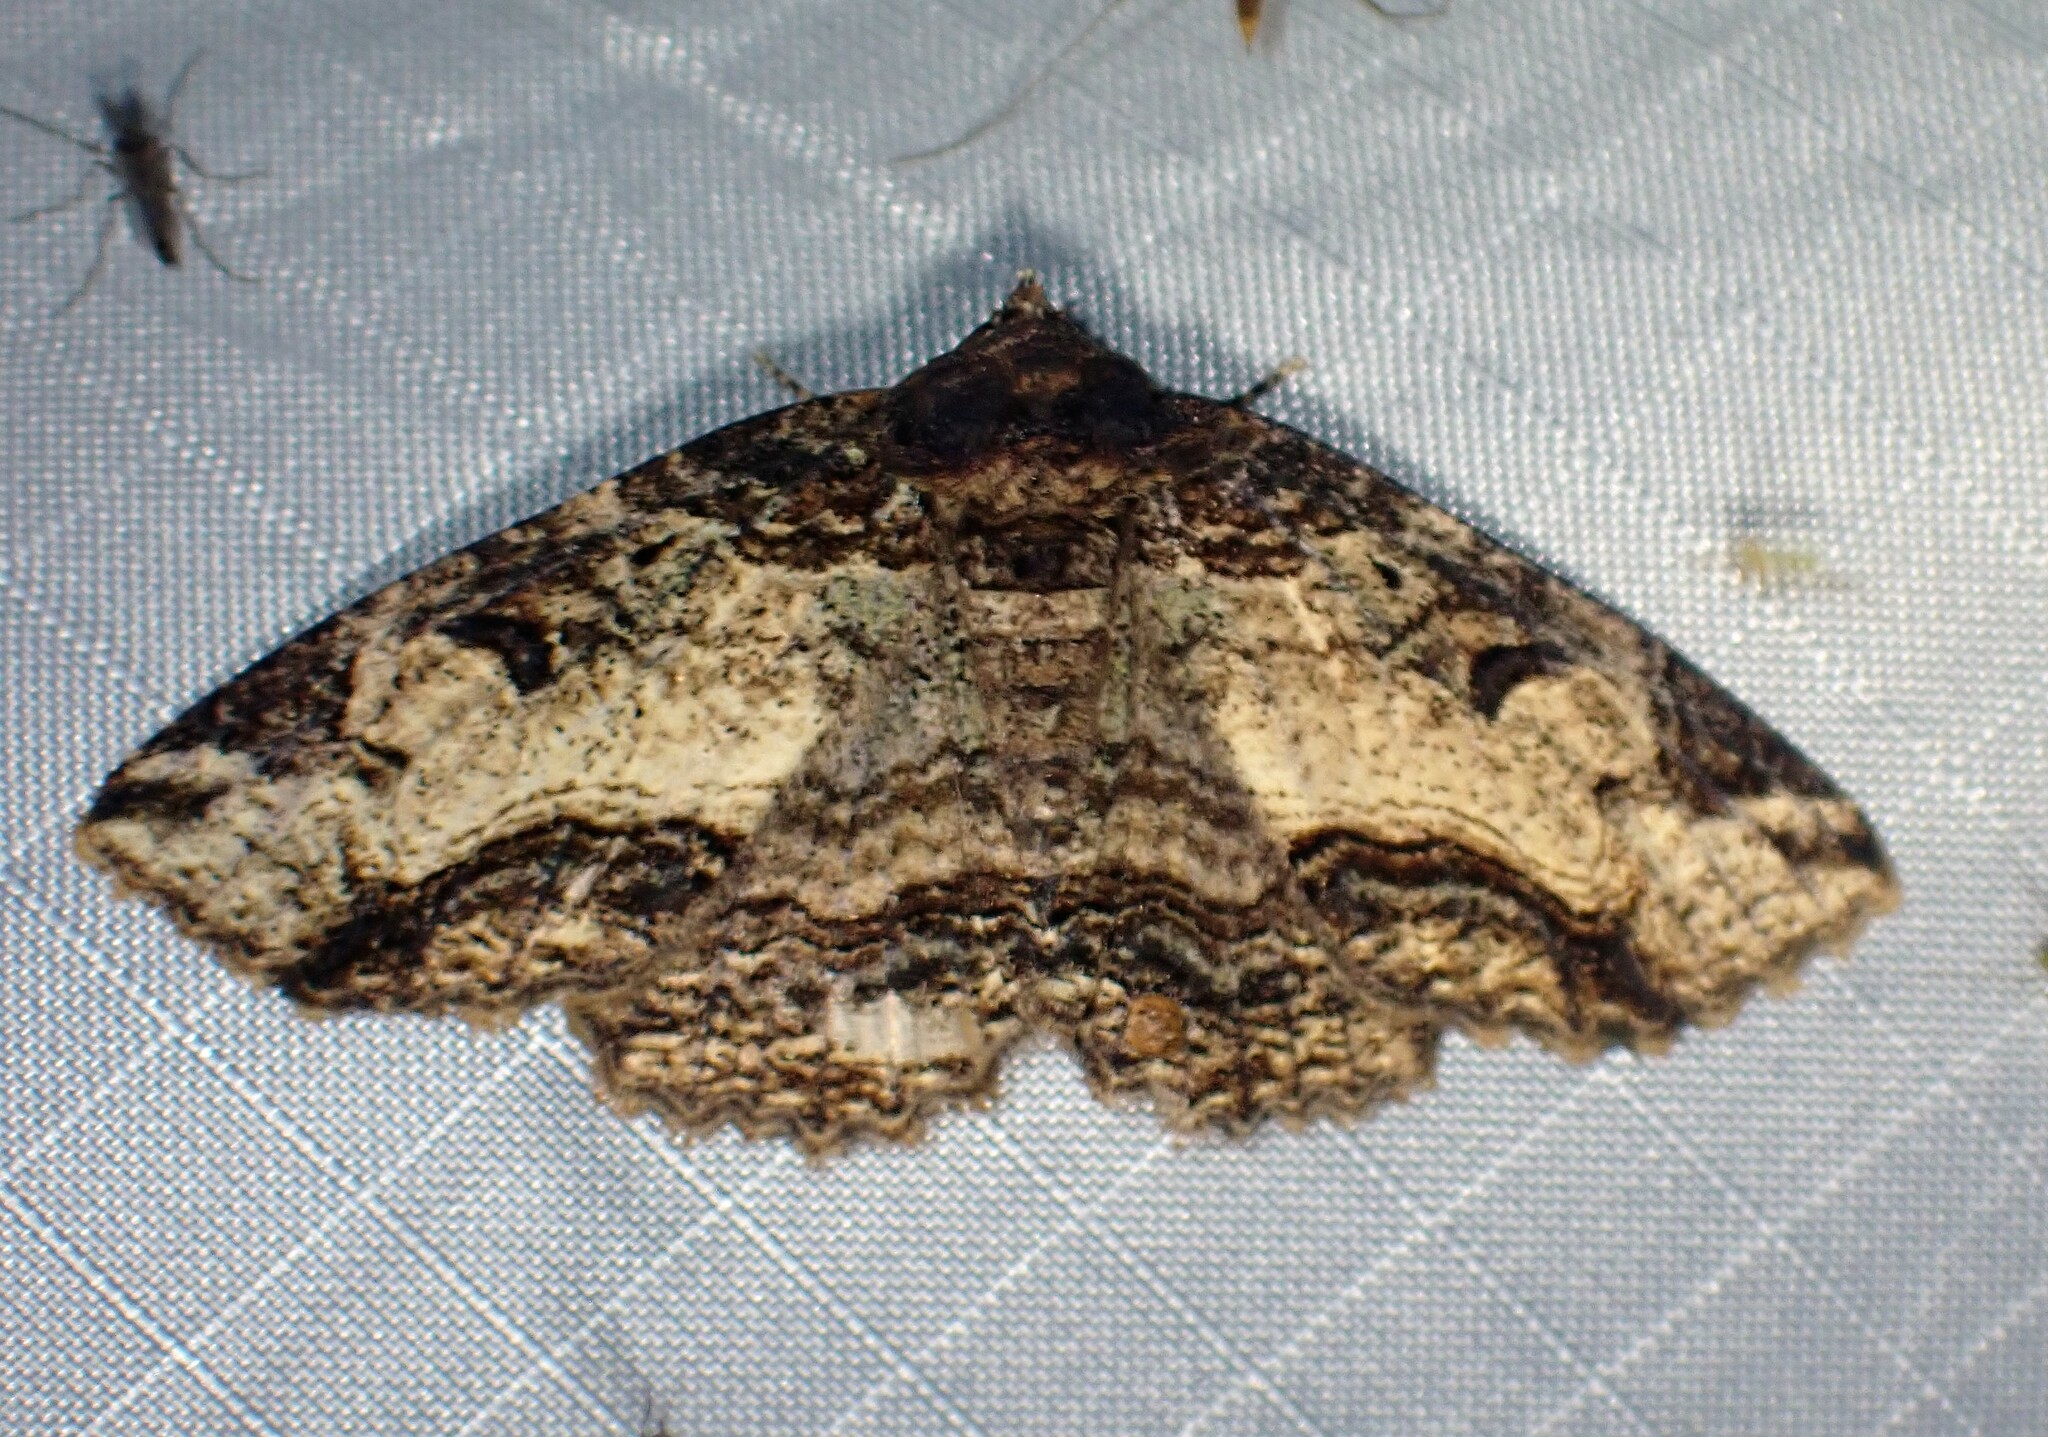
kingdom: Animalia
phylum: Arthropoda
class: Insecta
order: Lepidoptera
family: Erebidae
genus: Zale
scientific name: Zale minerea
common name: Colorful zale moth
